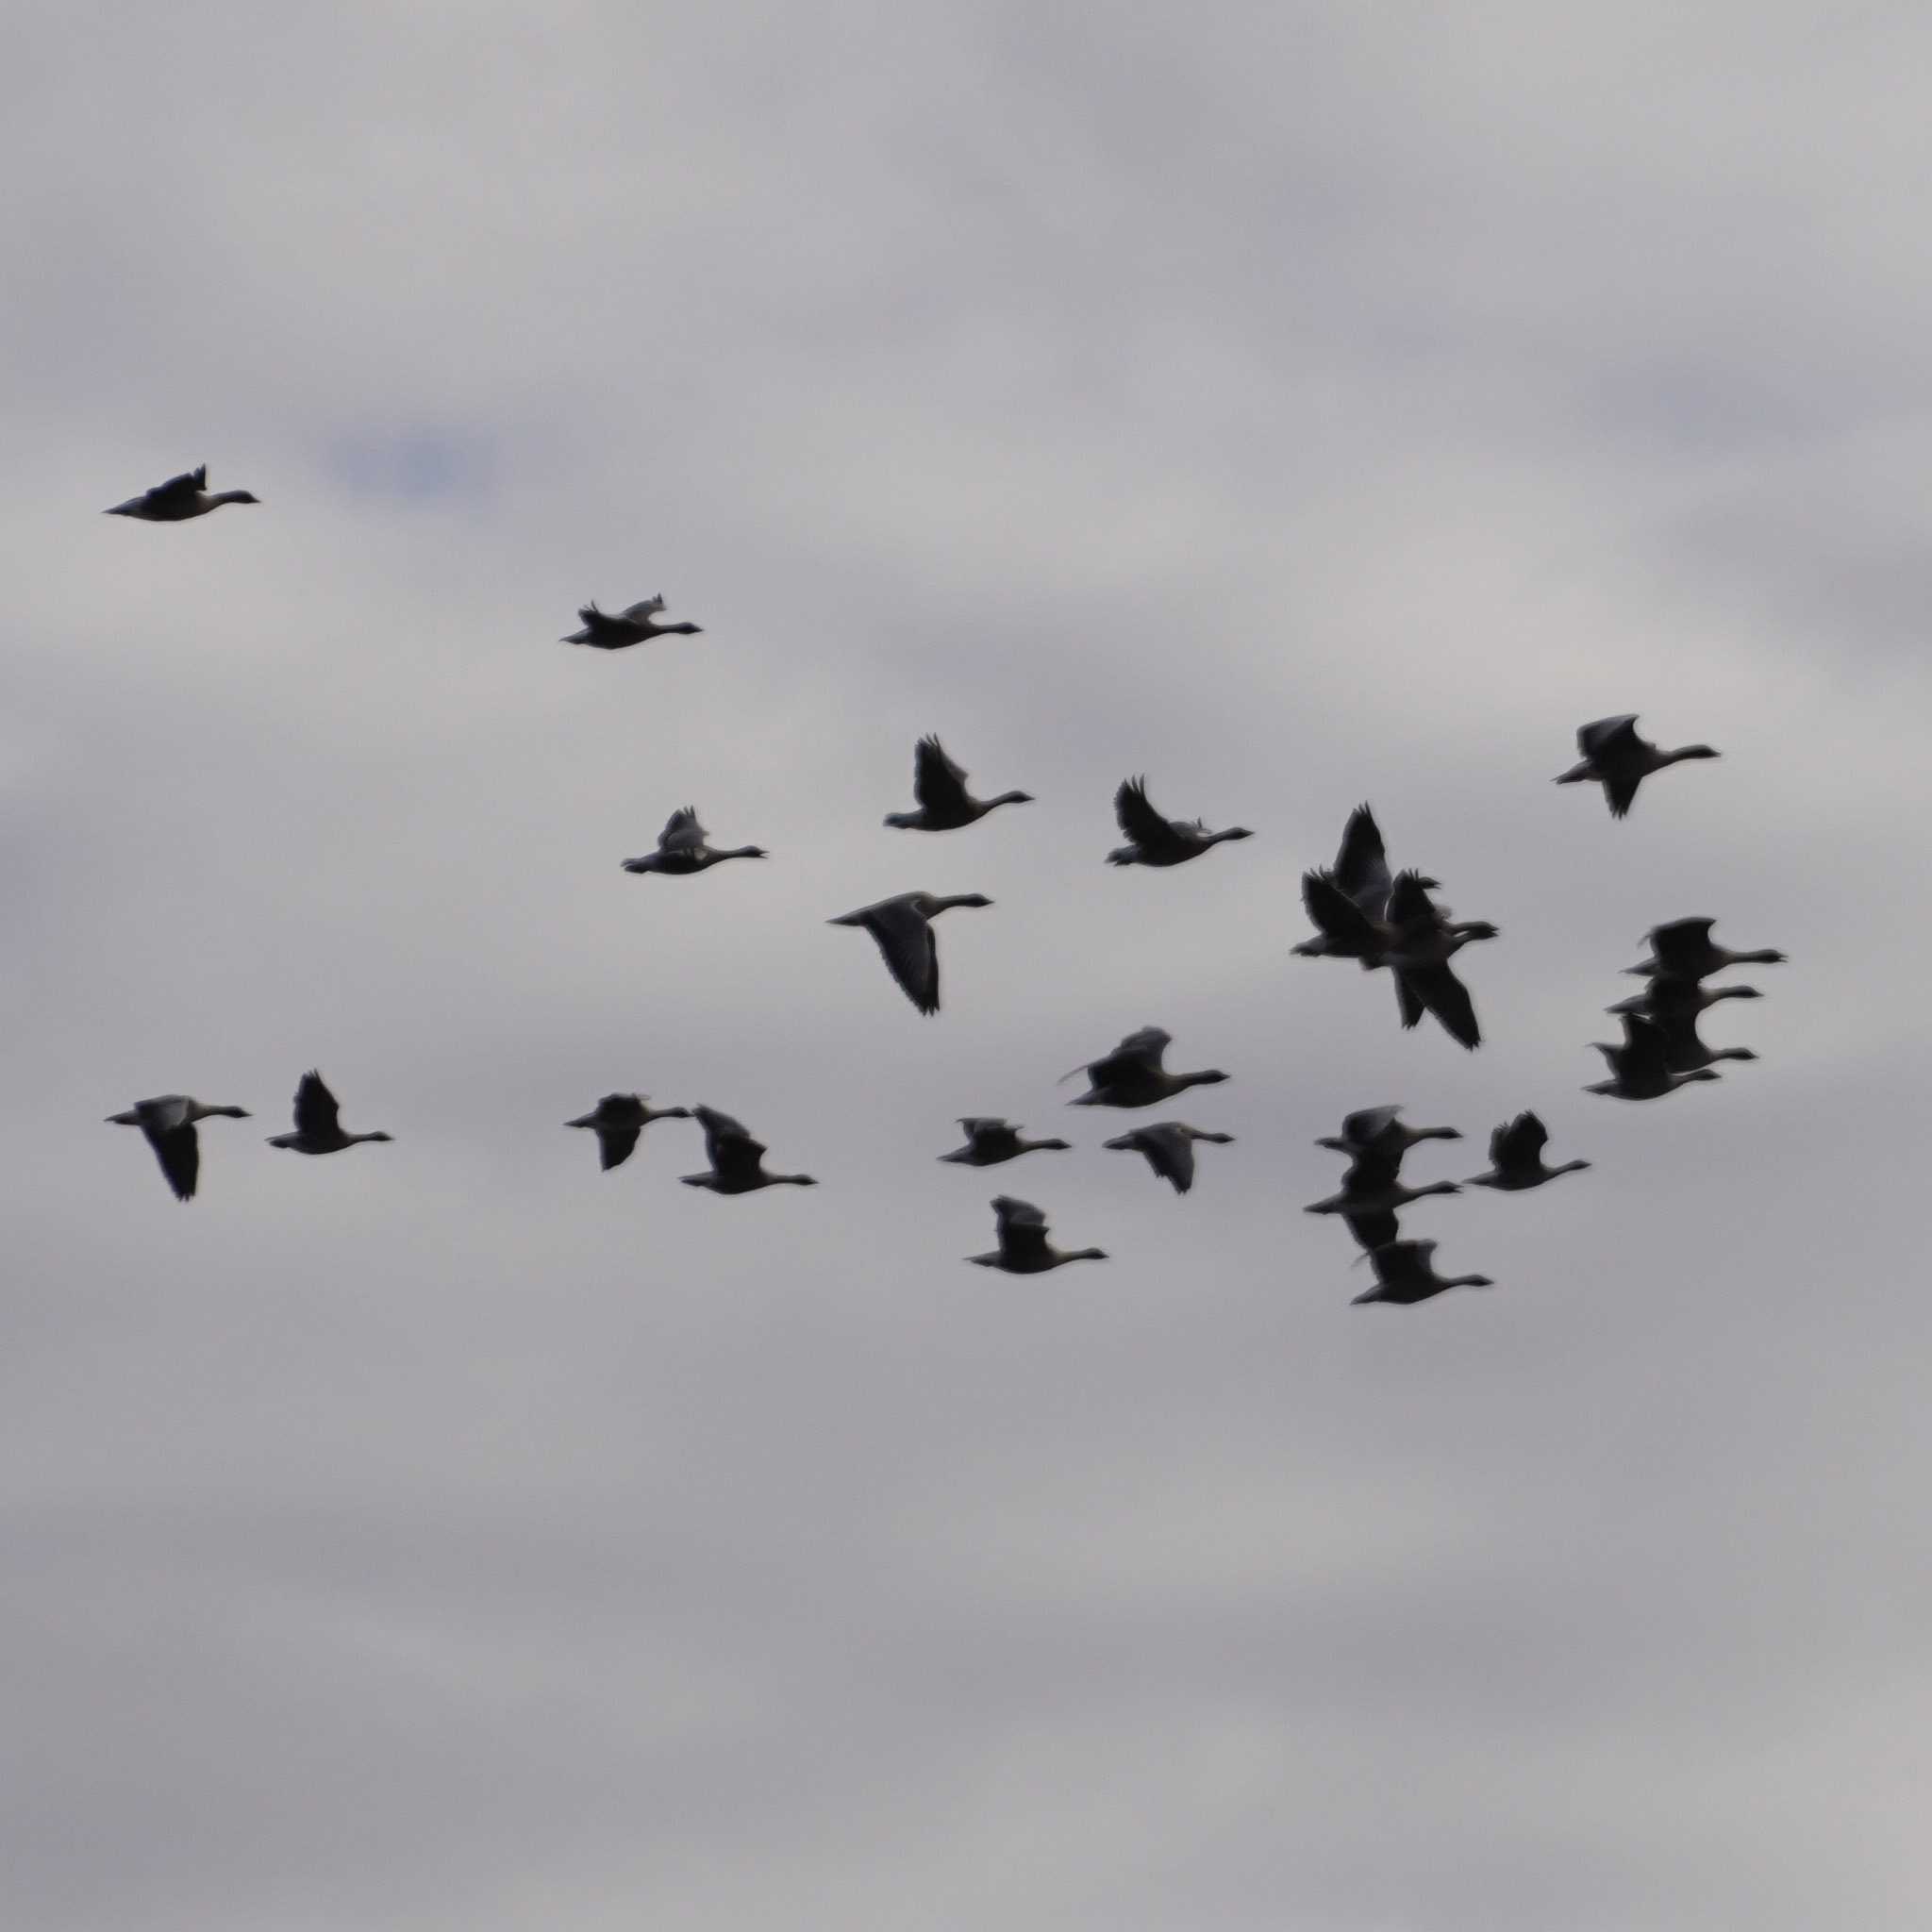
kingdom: Animalia
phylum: Chordata
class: Aves
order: Anseriformes
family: Anatidae
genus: Anser
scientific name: Anser brachyrhynchus
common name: Pink-footed goose
